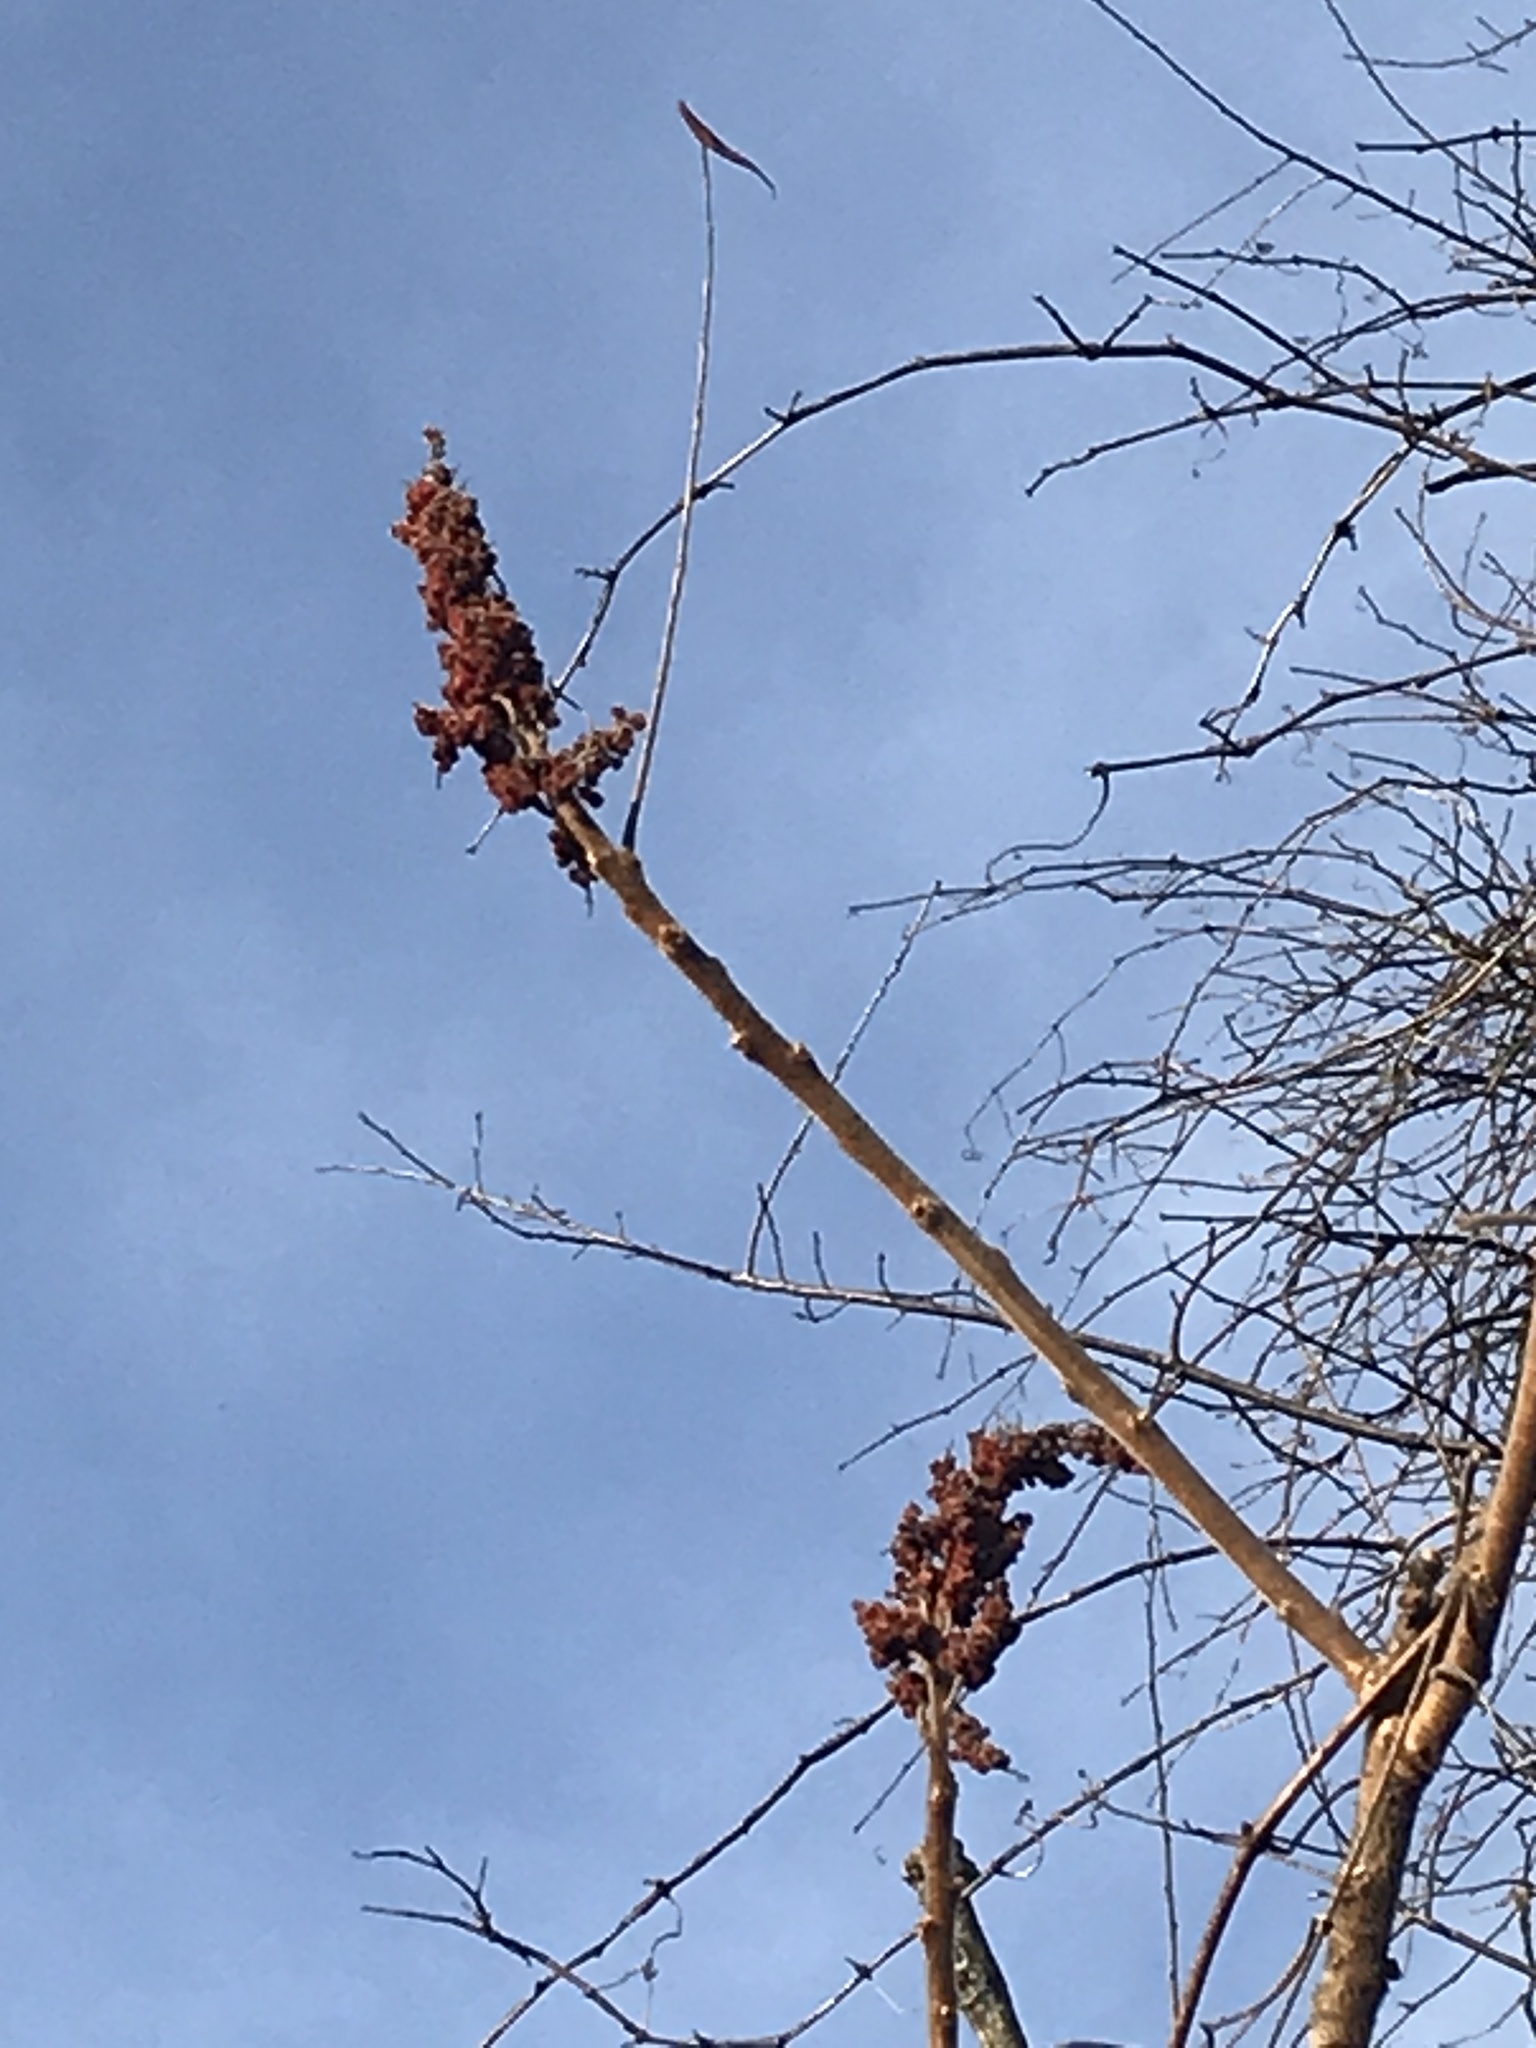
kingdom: Plantae
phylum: Tracheophyta
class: Magnoliopsida
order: Sapindales
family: Anacardiaceae
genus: Rhus
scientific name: Rhus typhina
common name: Staghorn sumac
